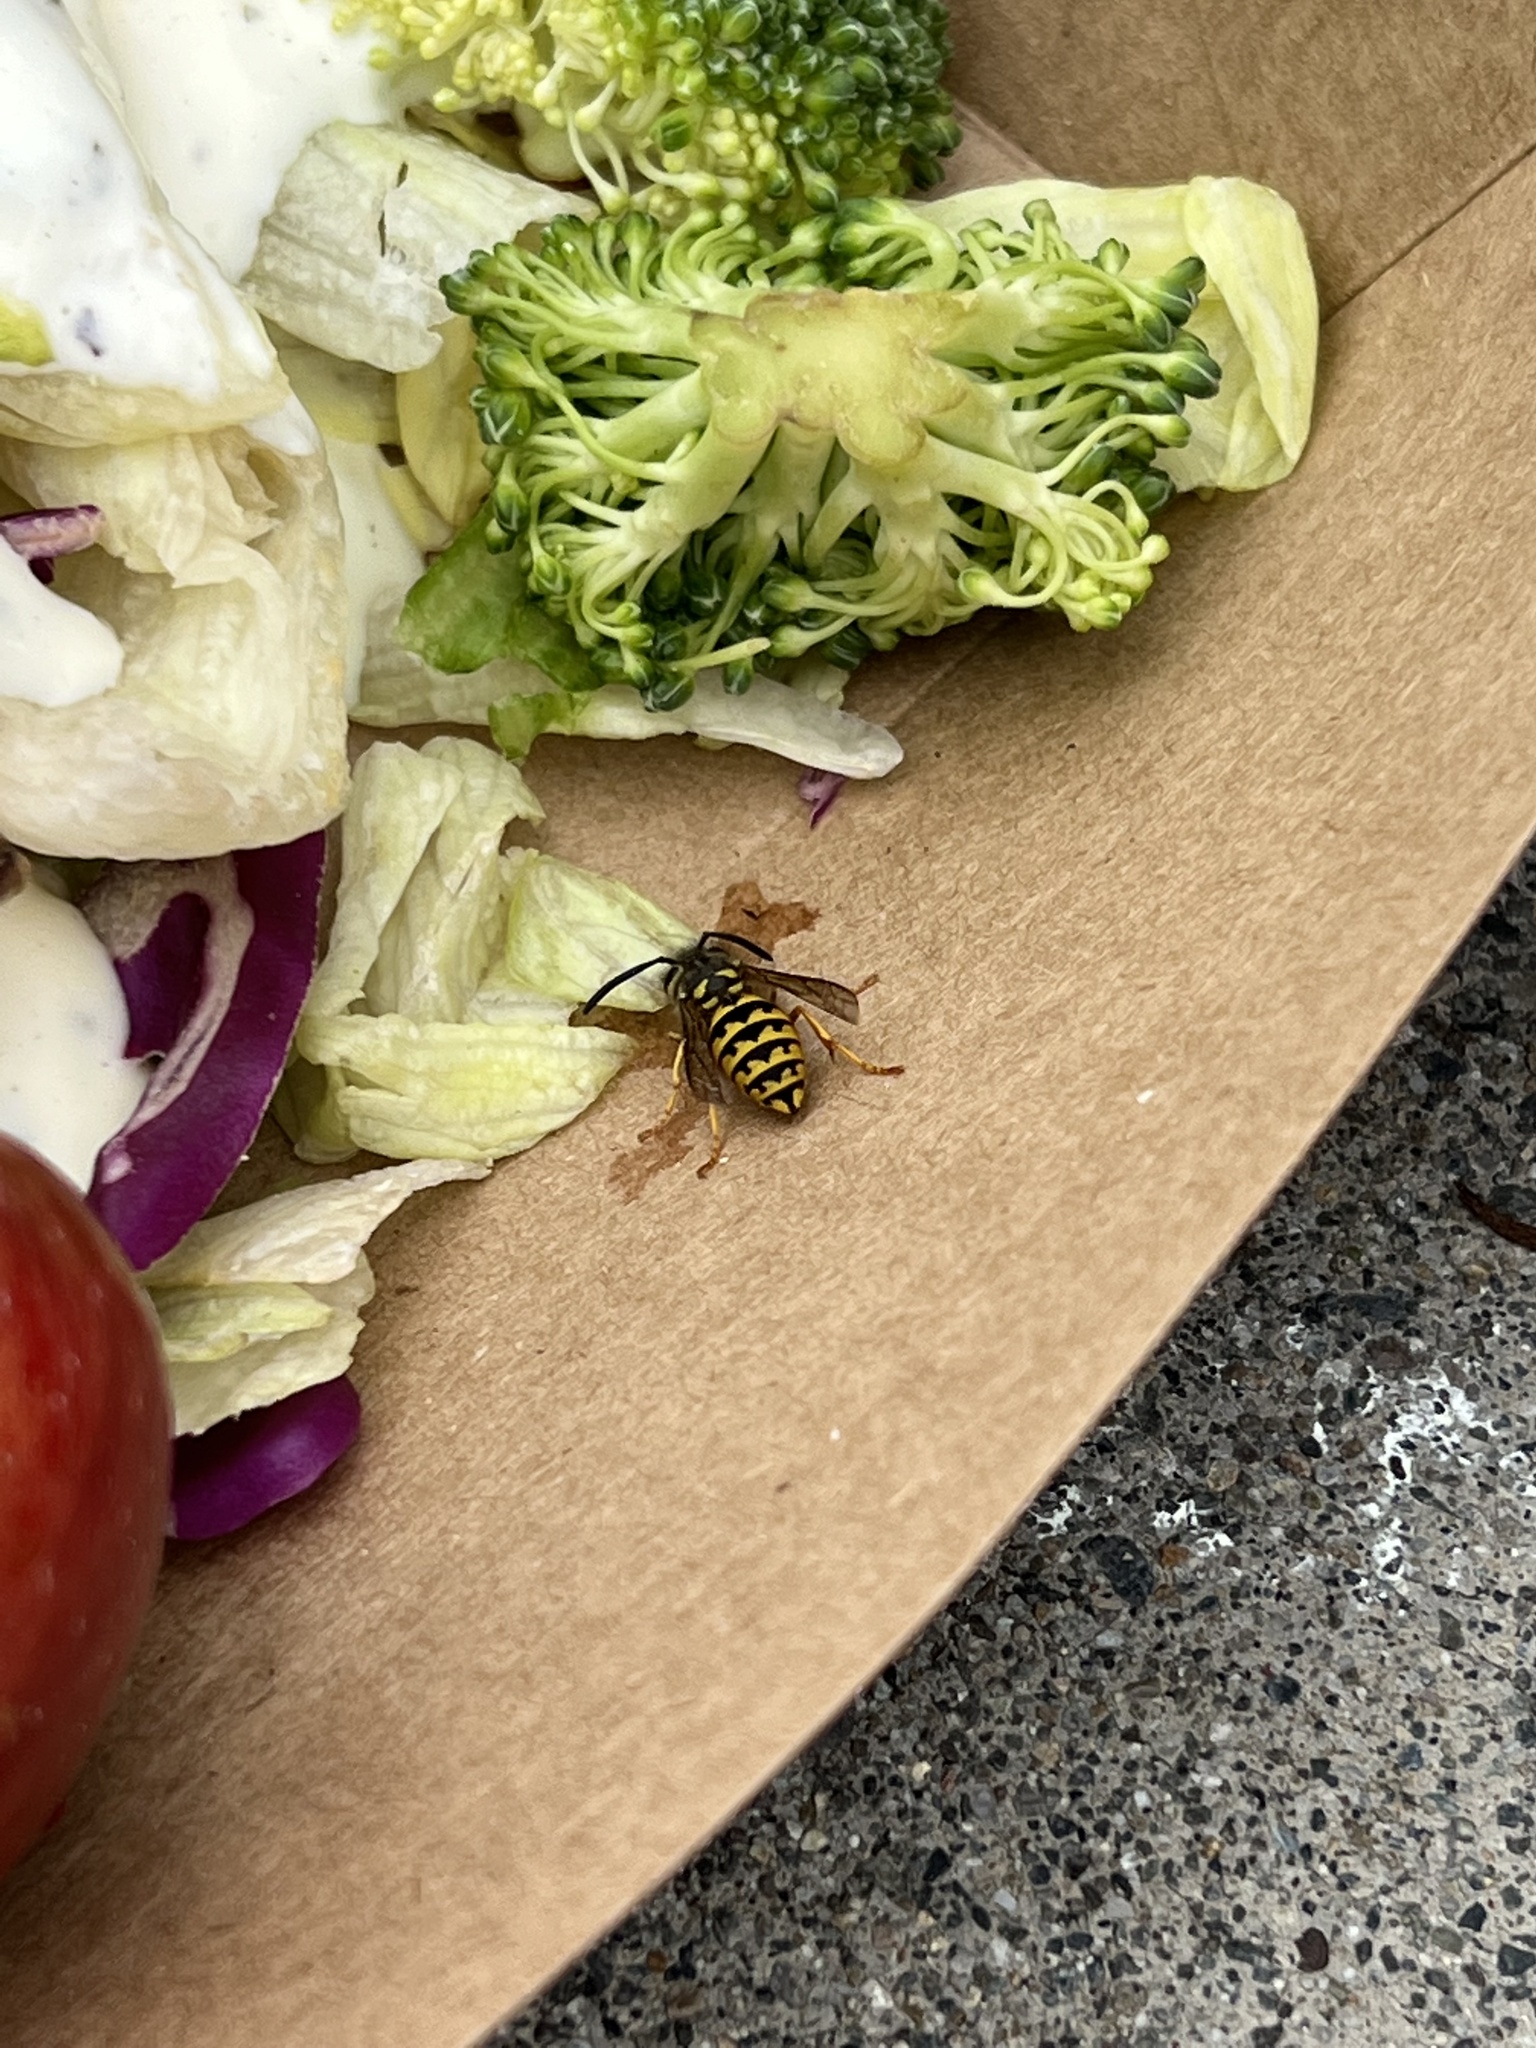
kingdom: Animalia
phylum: Arthropoda
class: Insecta
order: Hymenoptera
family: Vespidae
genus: Vespula
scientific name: Vespula pensylvanica
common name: Western yellowjacket
